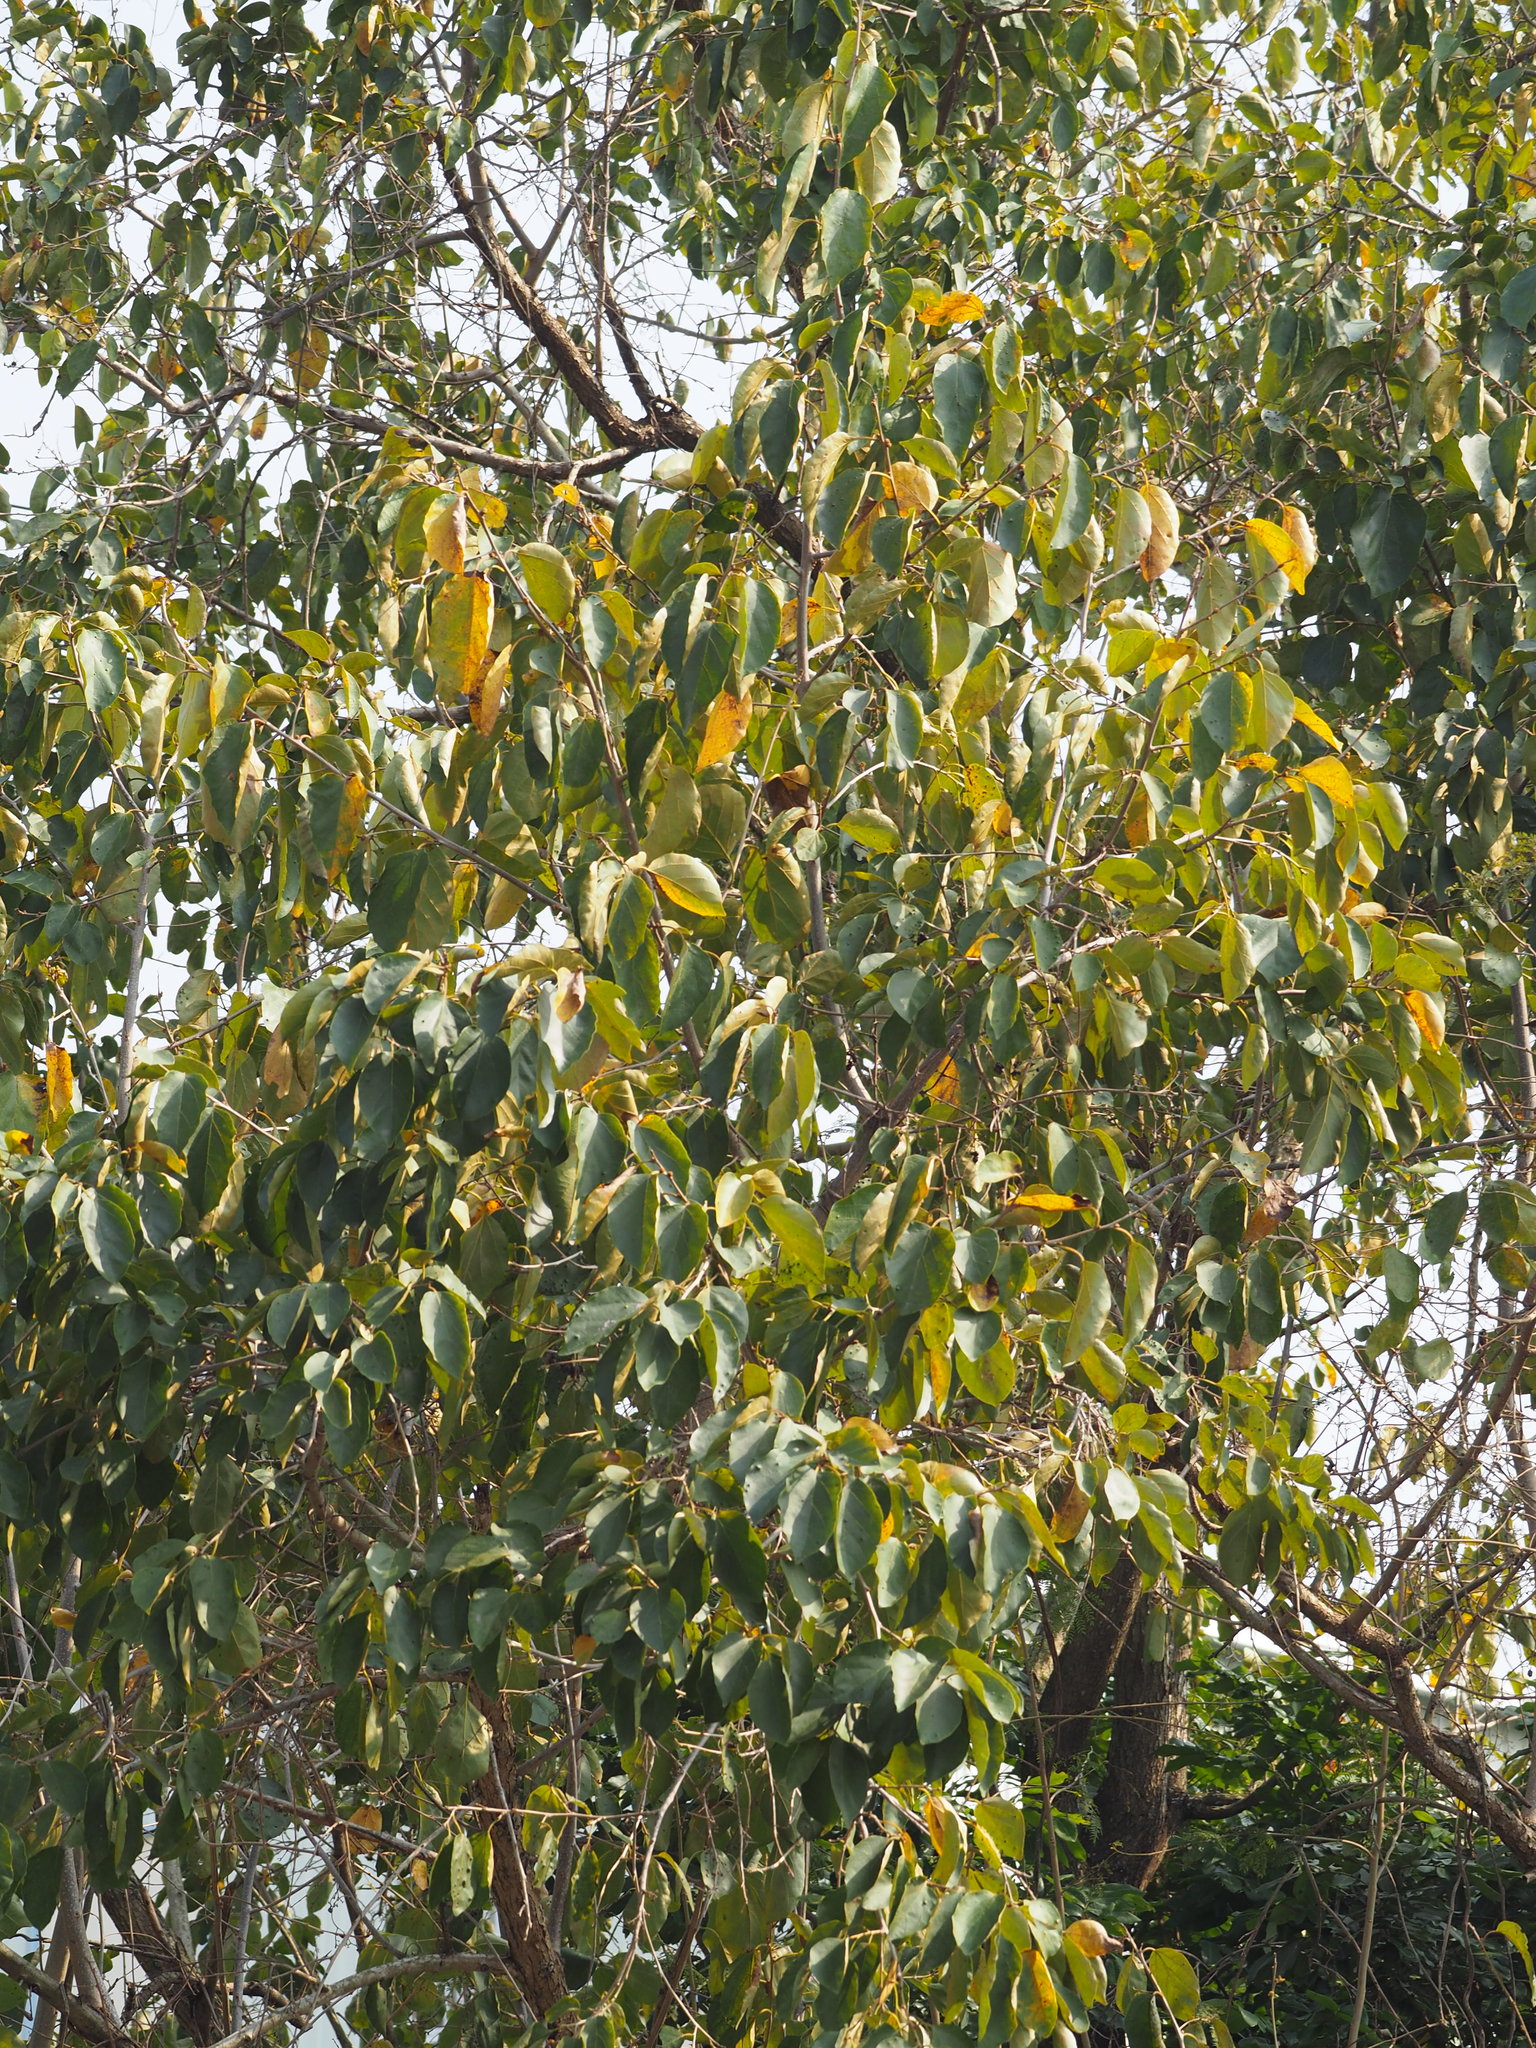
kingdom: Plantae
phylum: Tracheophyta
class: Magnoliopsida
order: Boraginales
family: Cordiaceae
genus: Cordia
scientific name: Cordia dichotoma
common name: Fragrant manjack
